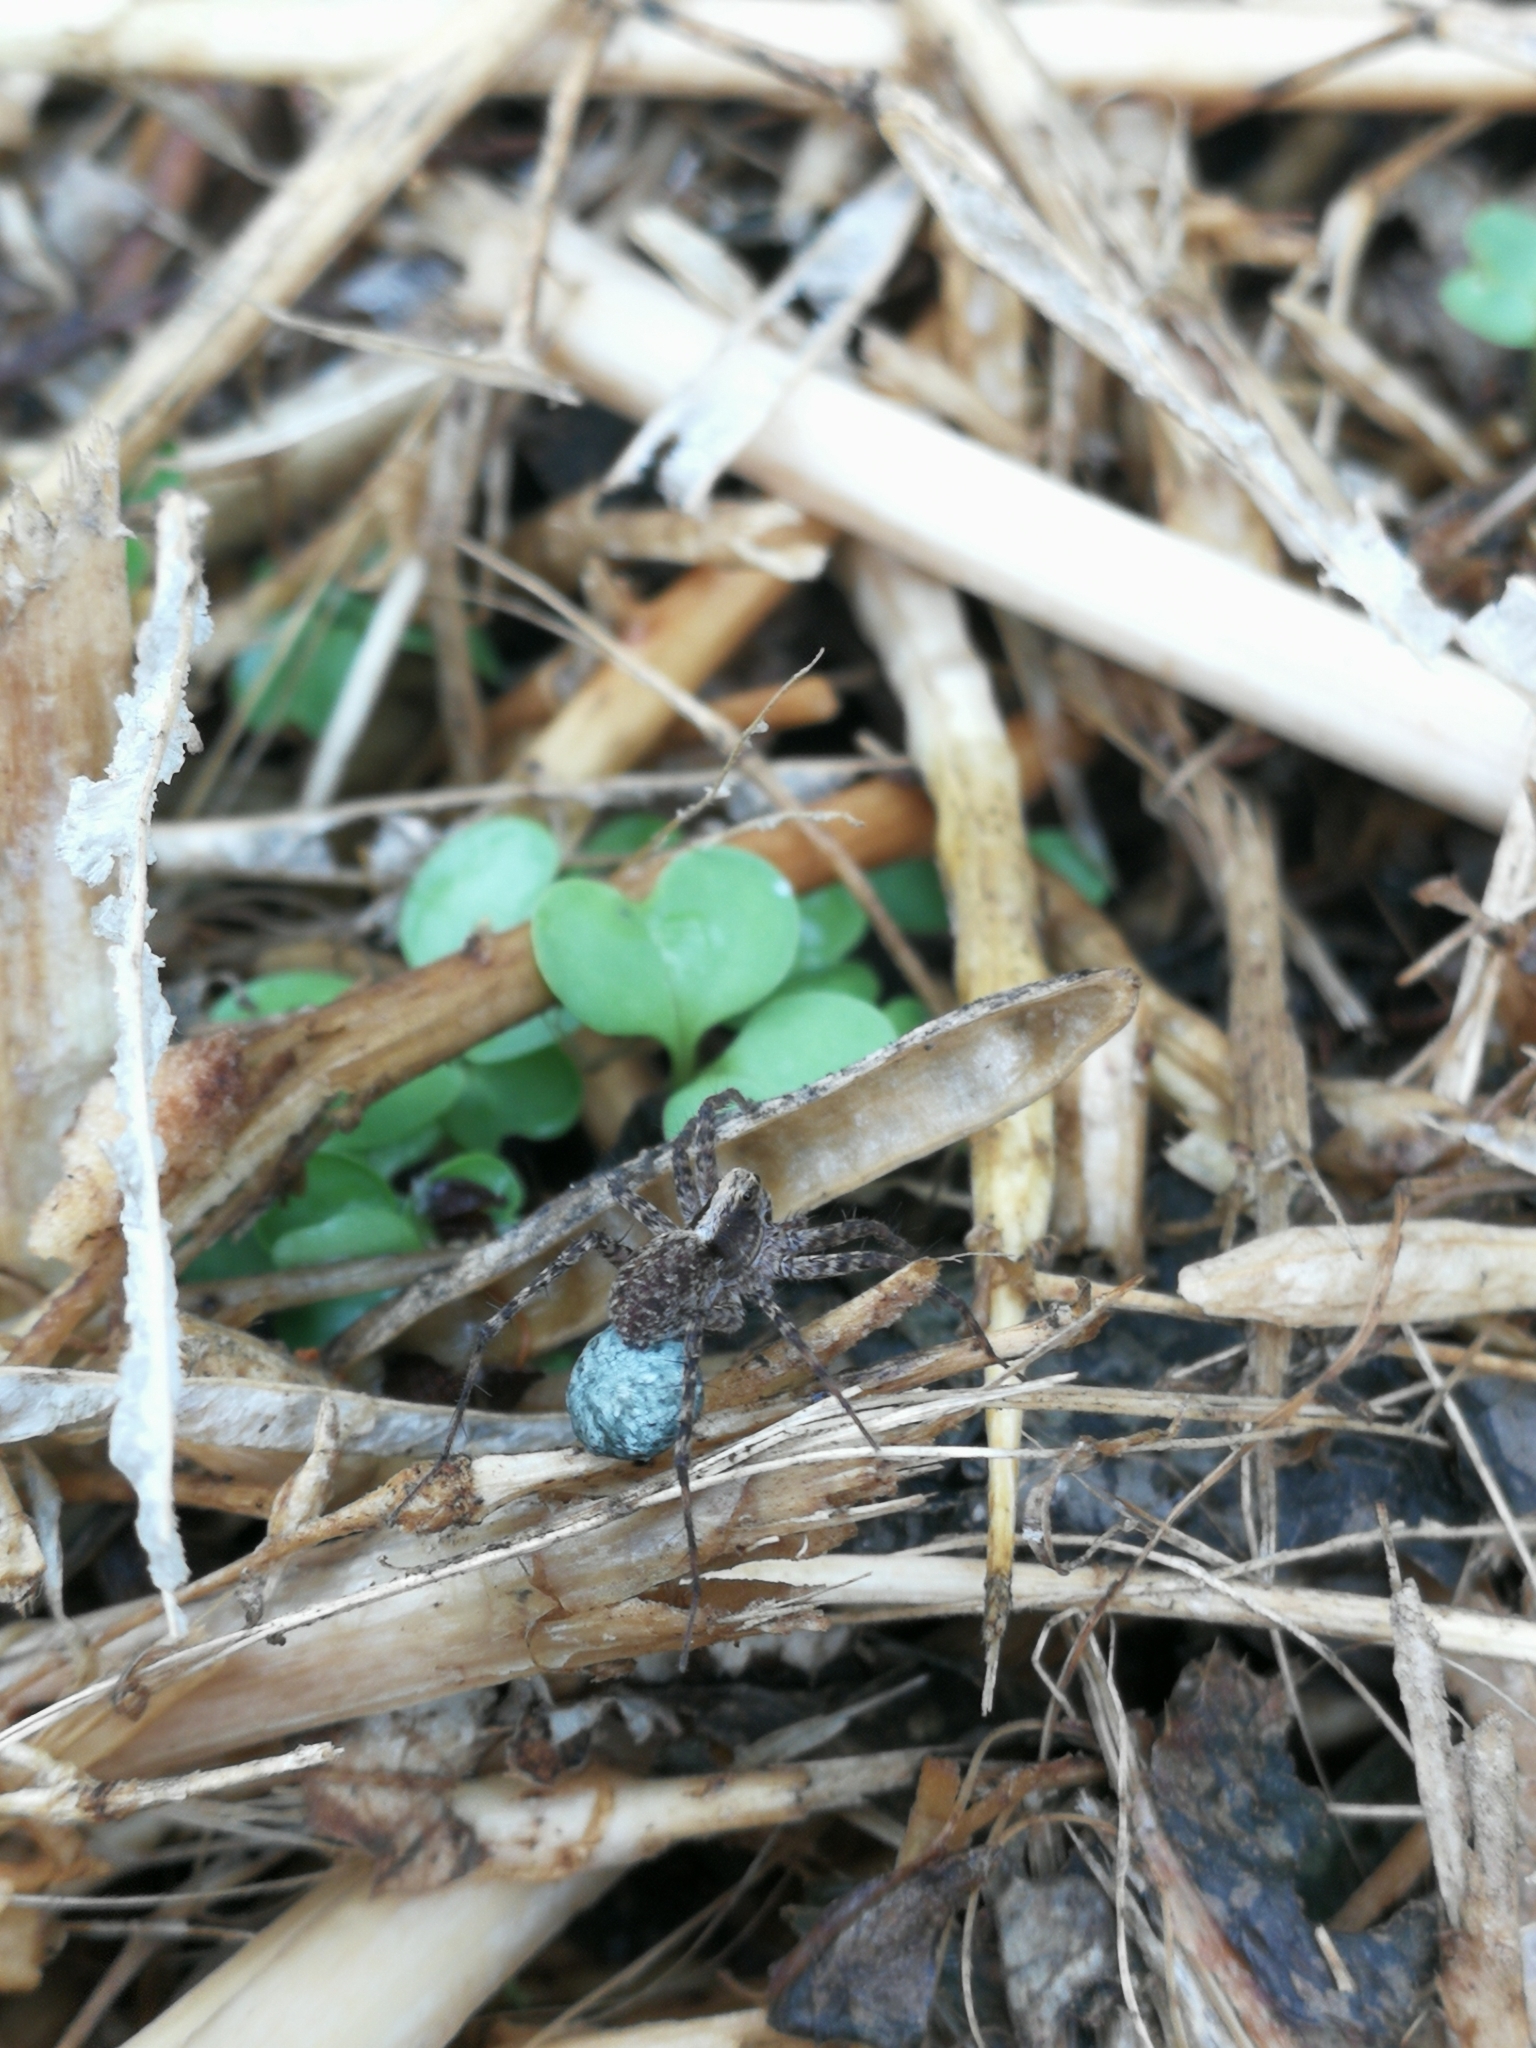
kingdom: Animalia
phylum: Arthropoda
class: Arachnida
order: Araneae
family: Lycosidae
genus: Pardosa
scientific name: Pardosa
